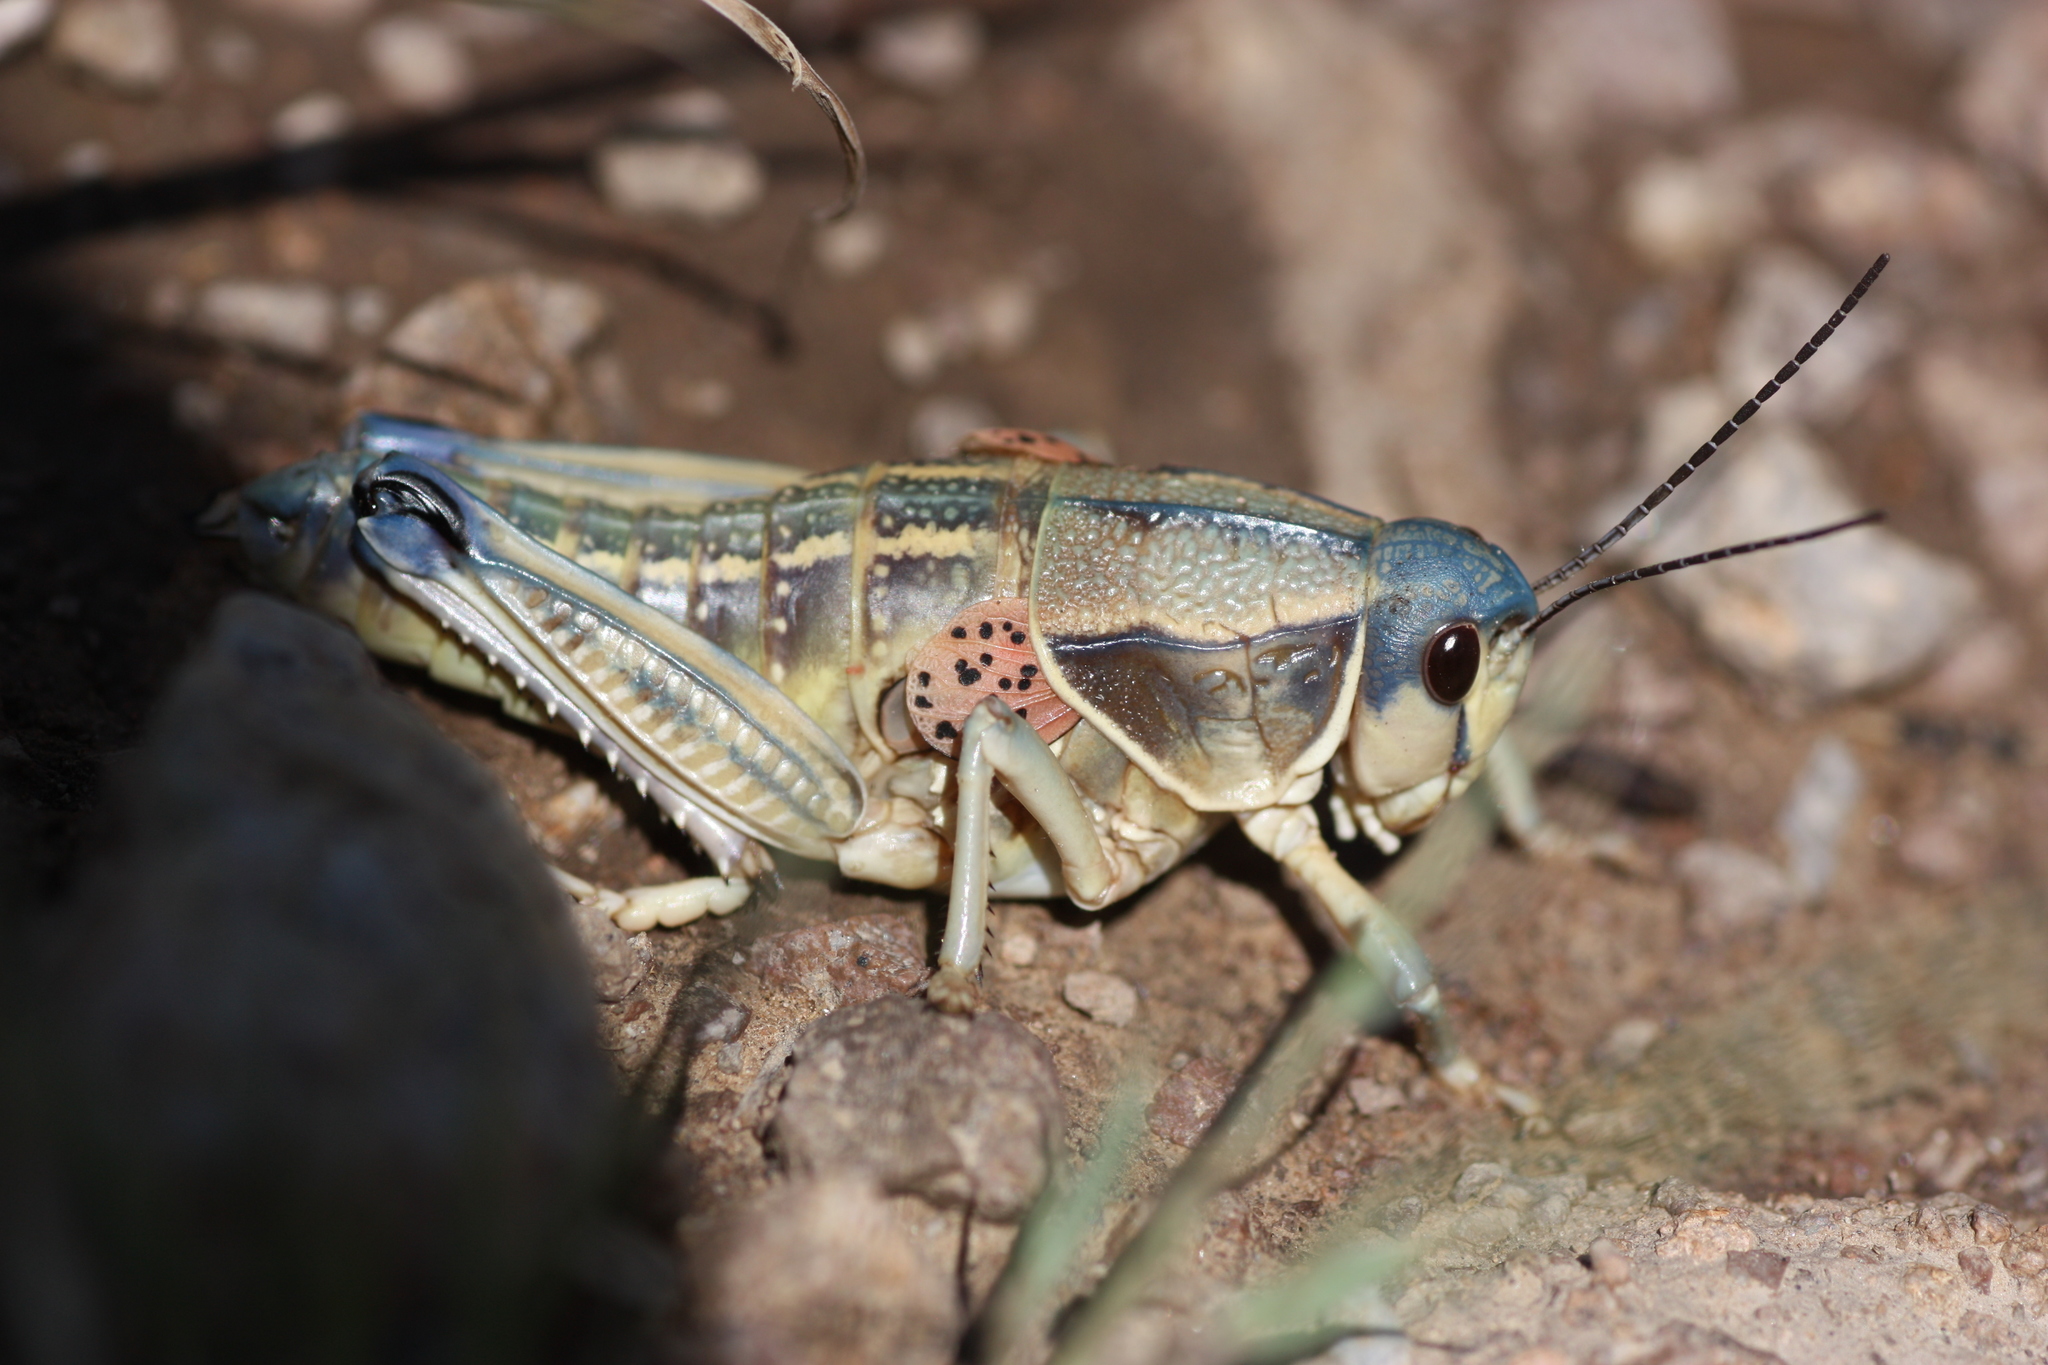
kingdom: Animalia
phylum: Arthropoda
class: Insecta
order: Orthoptera
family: Romaleidae
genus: Brachystola
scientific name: Brachystola magna
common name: Plains lubber grasshopper
